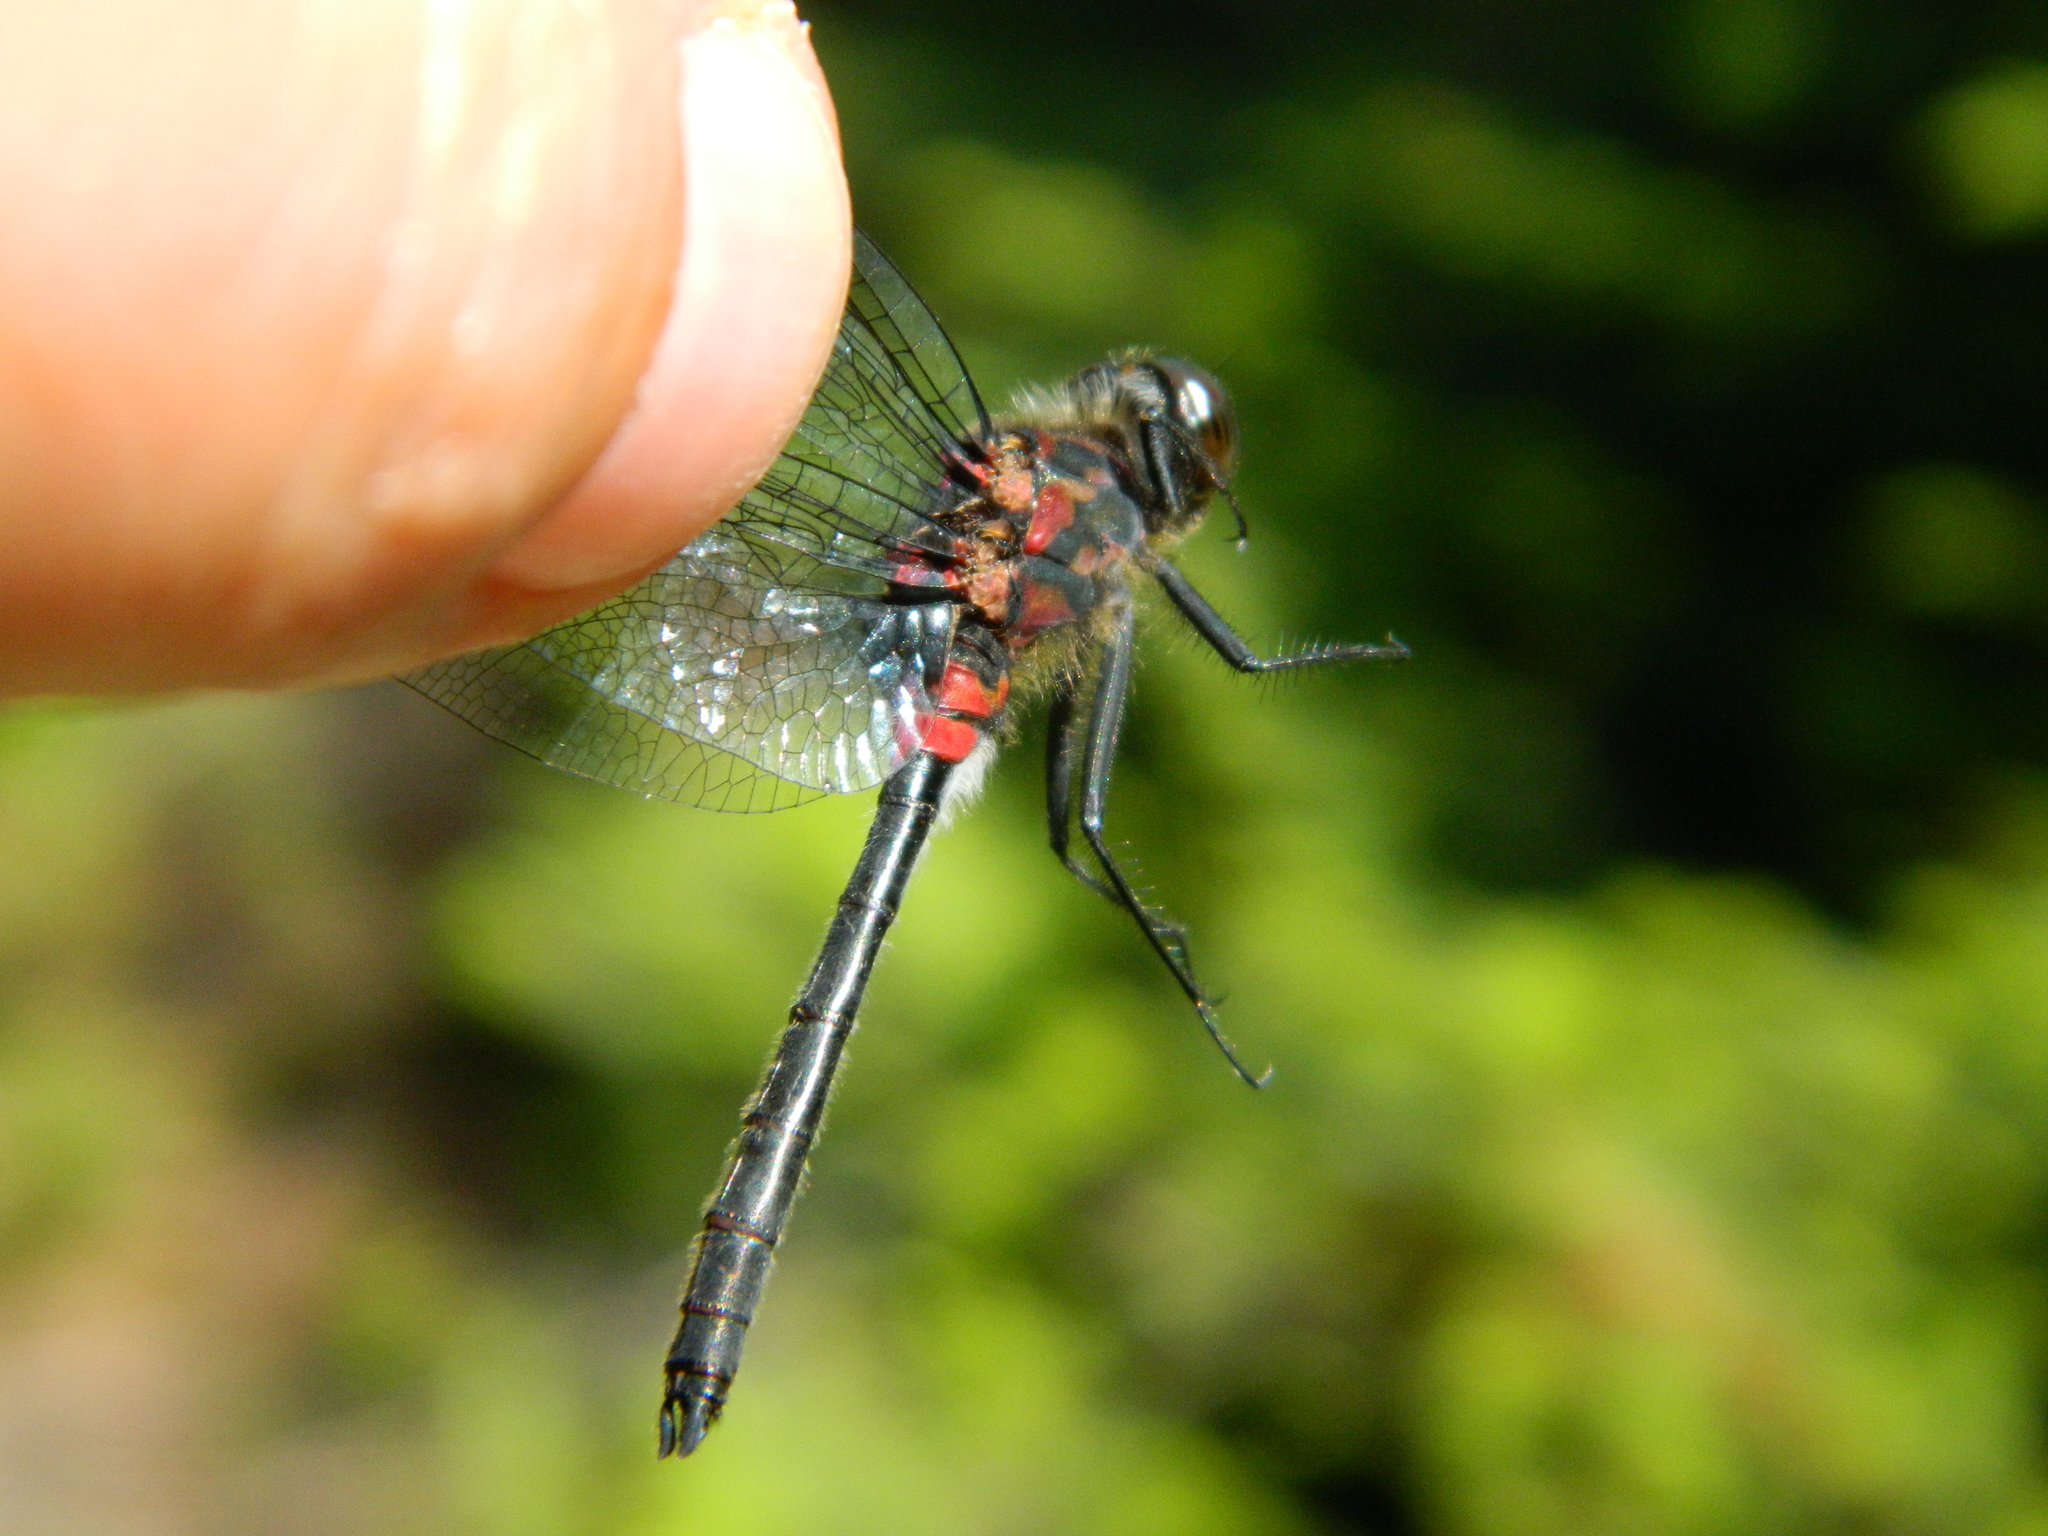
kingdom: Animalia
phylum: Arthropoda
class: Insecta
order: Odonata
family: Libellulidae
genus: Leucorrhinia
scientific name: Leucorrhinia glacialis
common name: Crimson-ringed whiteface
